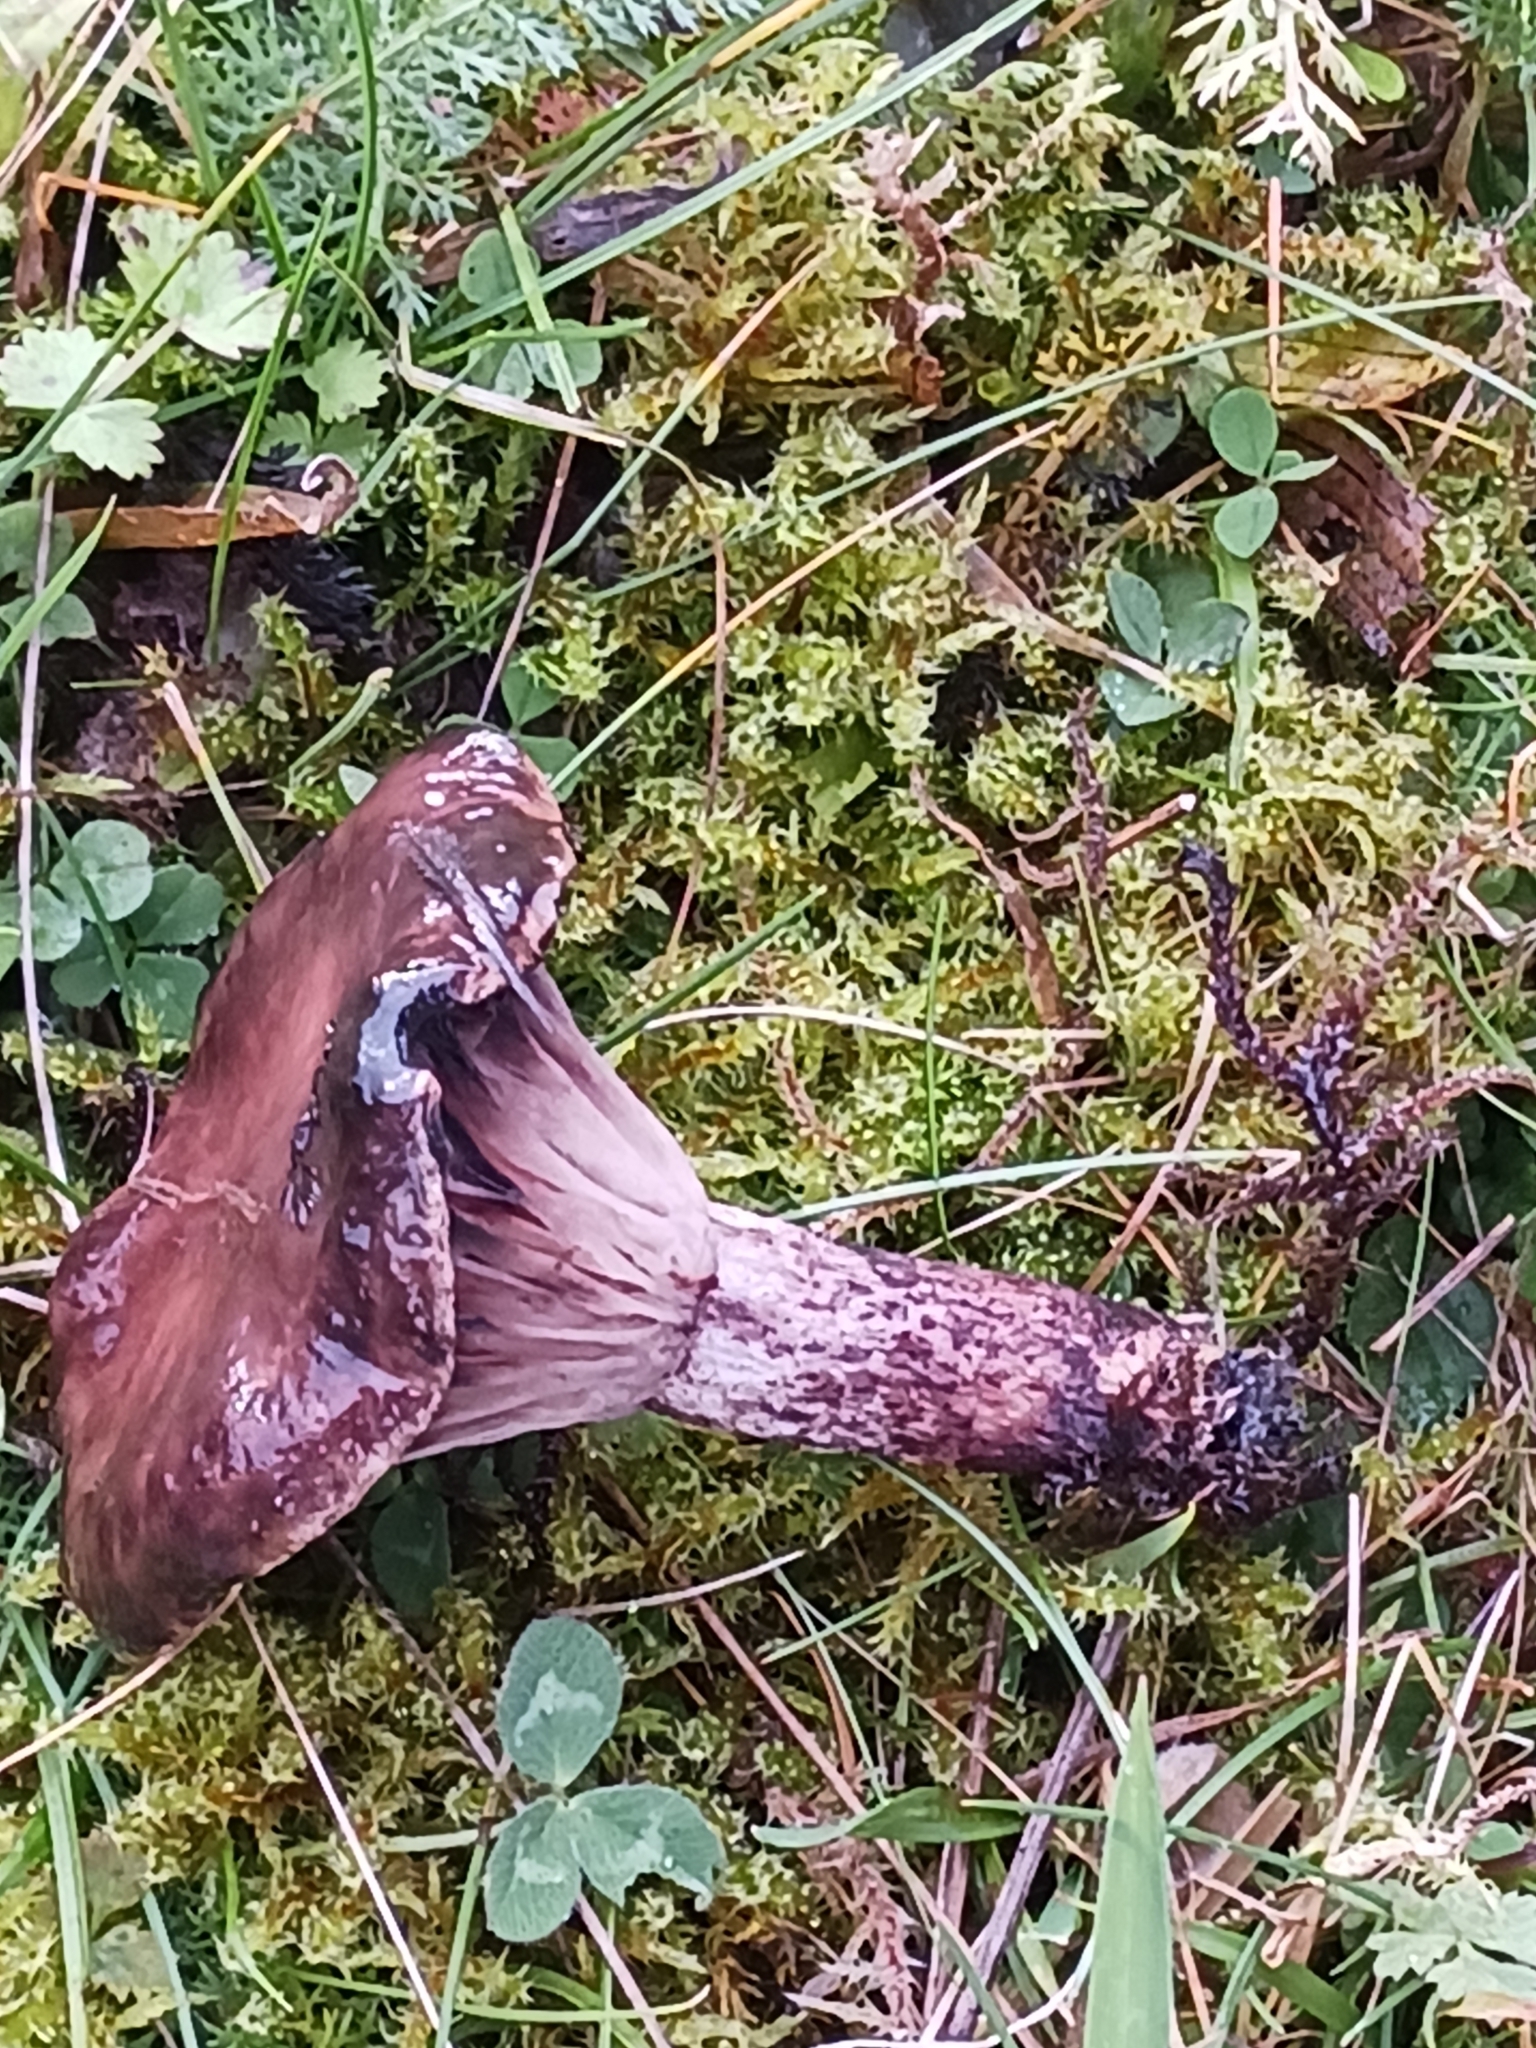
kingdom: Fungi
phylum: Basidiomycota
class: Agaricomycetes
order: Boletales
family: Gomphidiaceae
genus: Gomphidius
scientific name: Gomphidius maculatus
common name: Larch spike
